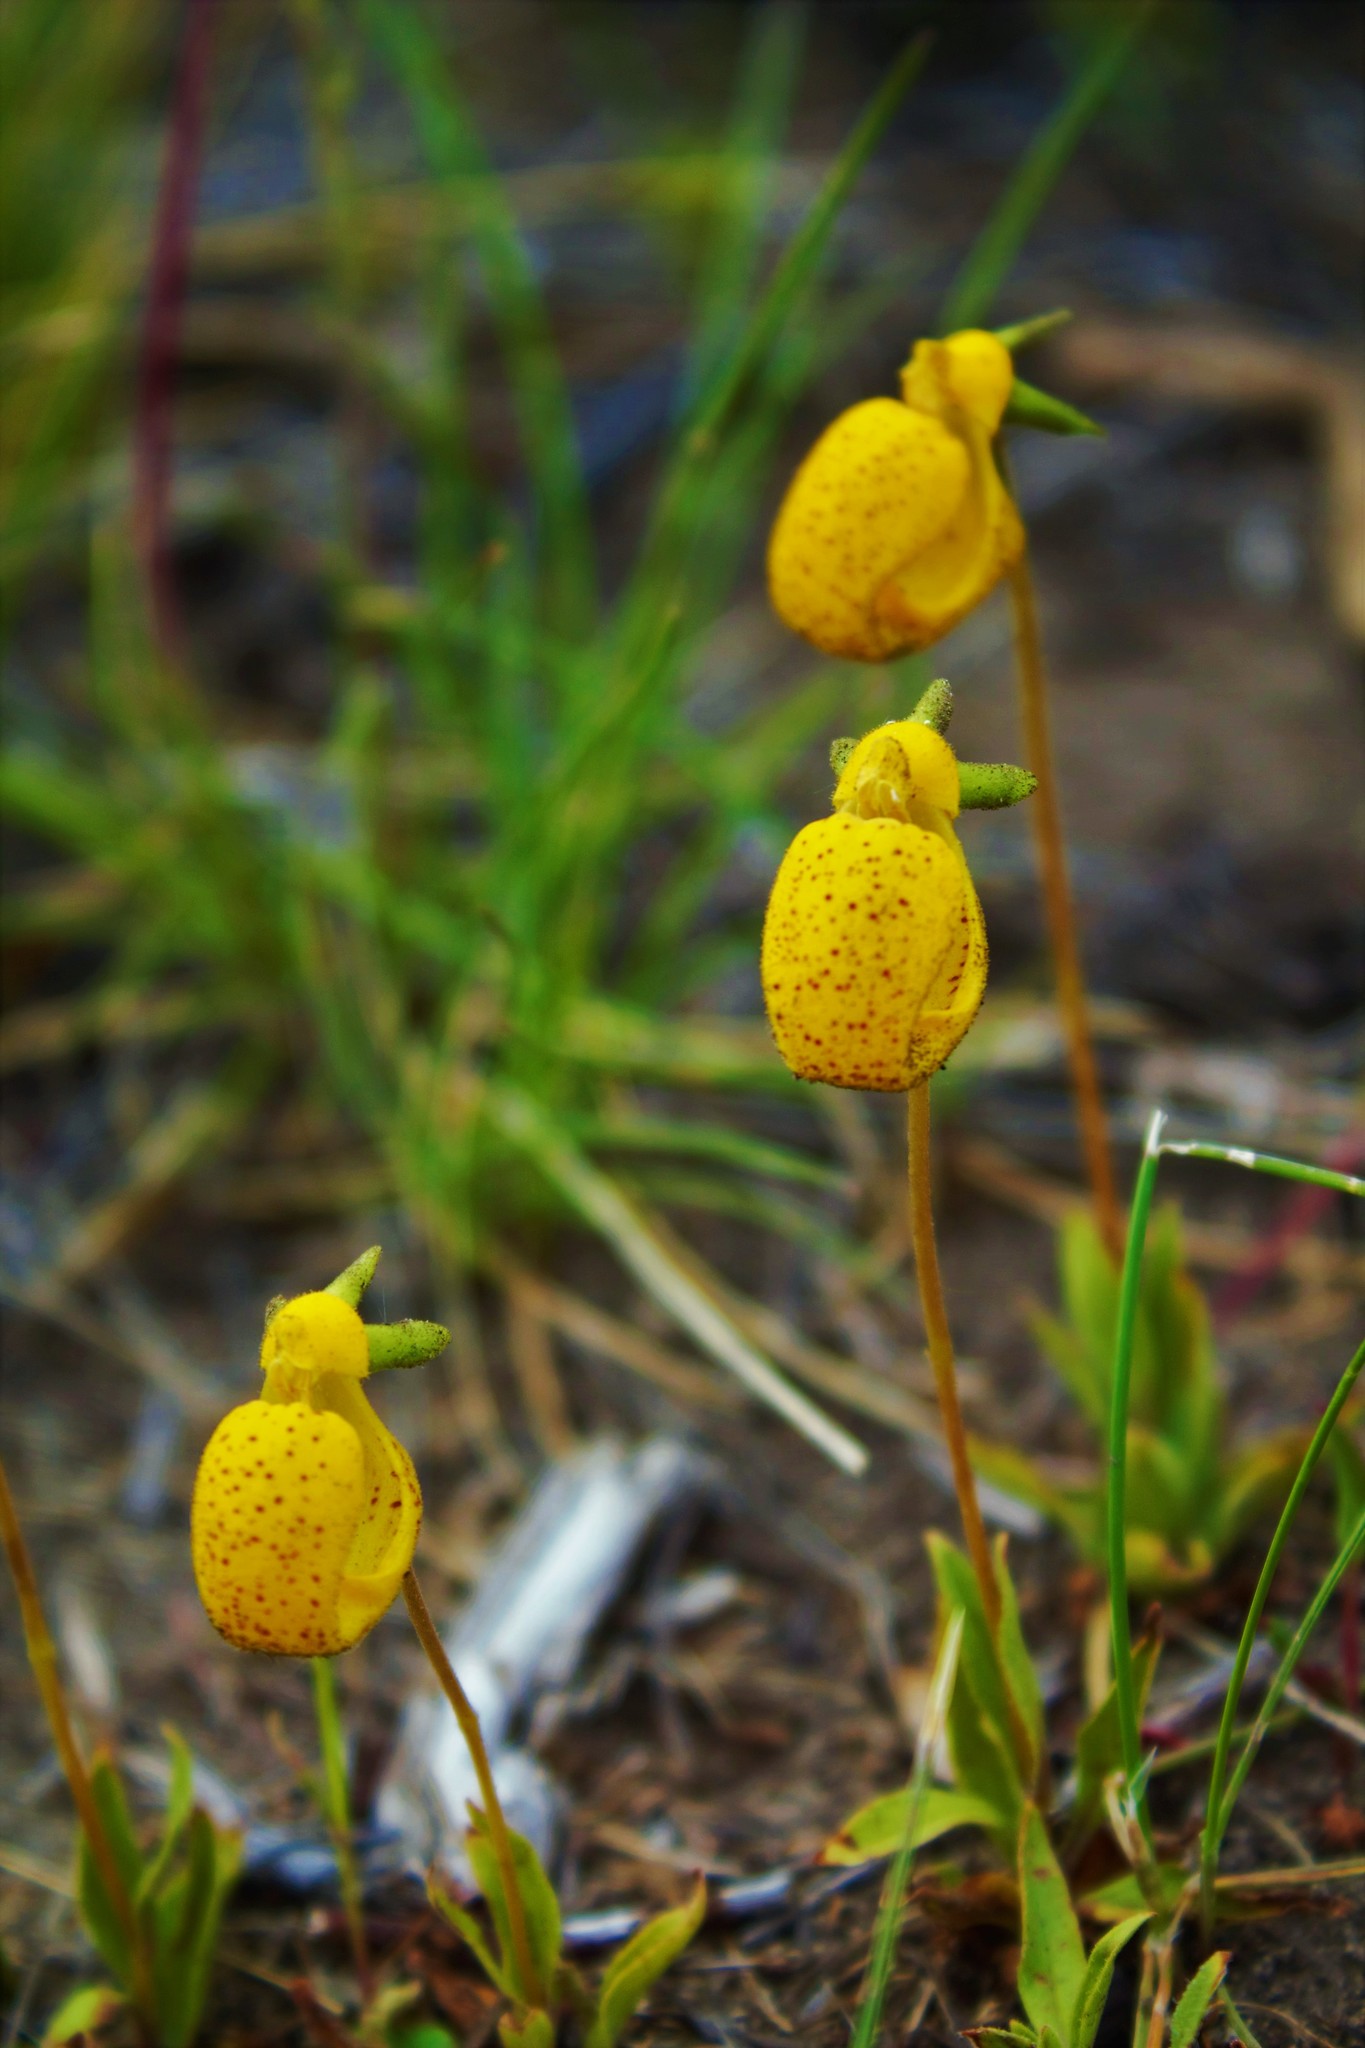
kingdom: Plantae
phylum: Tracheophyta
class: Magnoliopsida
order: Lamiales
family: Calceolariaceae
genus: Calceolaria
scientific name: Calceolaria polyrhiza
